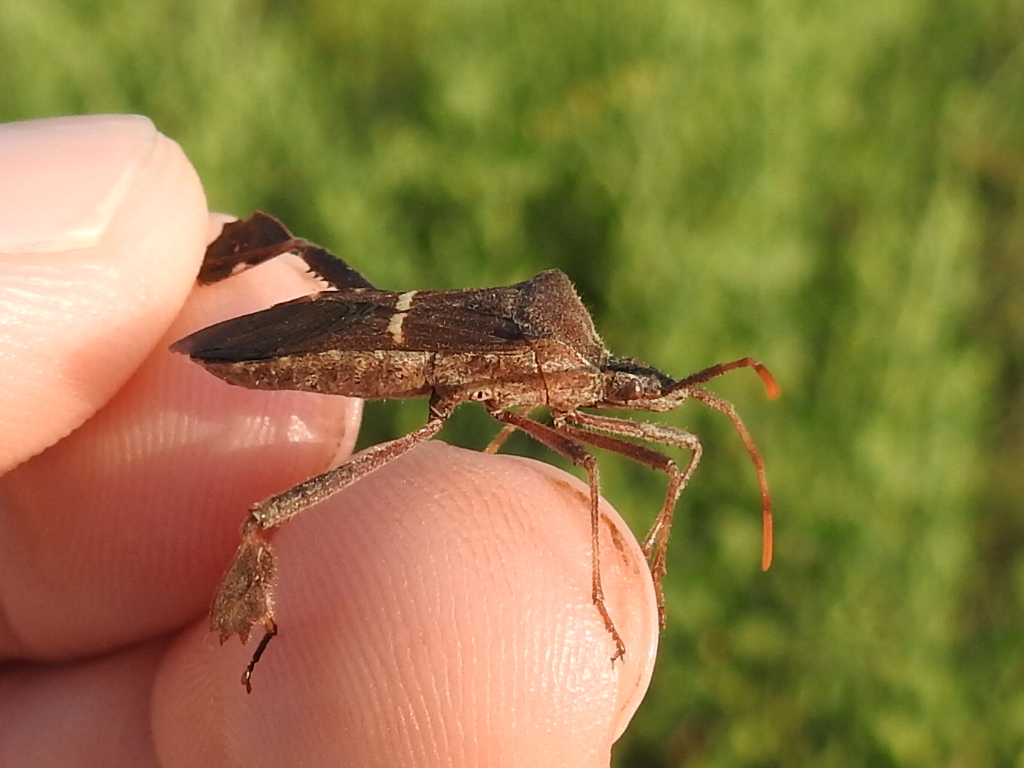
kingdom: Animalia
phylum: Arthropoda
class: Insecta
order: Hemiptera
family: Coreidae
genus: Leptoglossus
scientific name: Leptoglossus phyllopus
